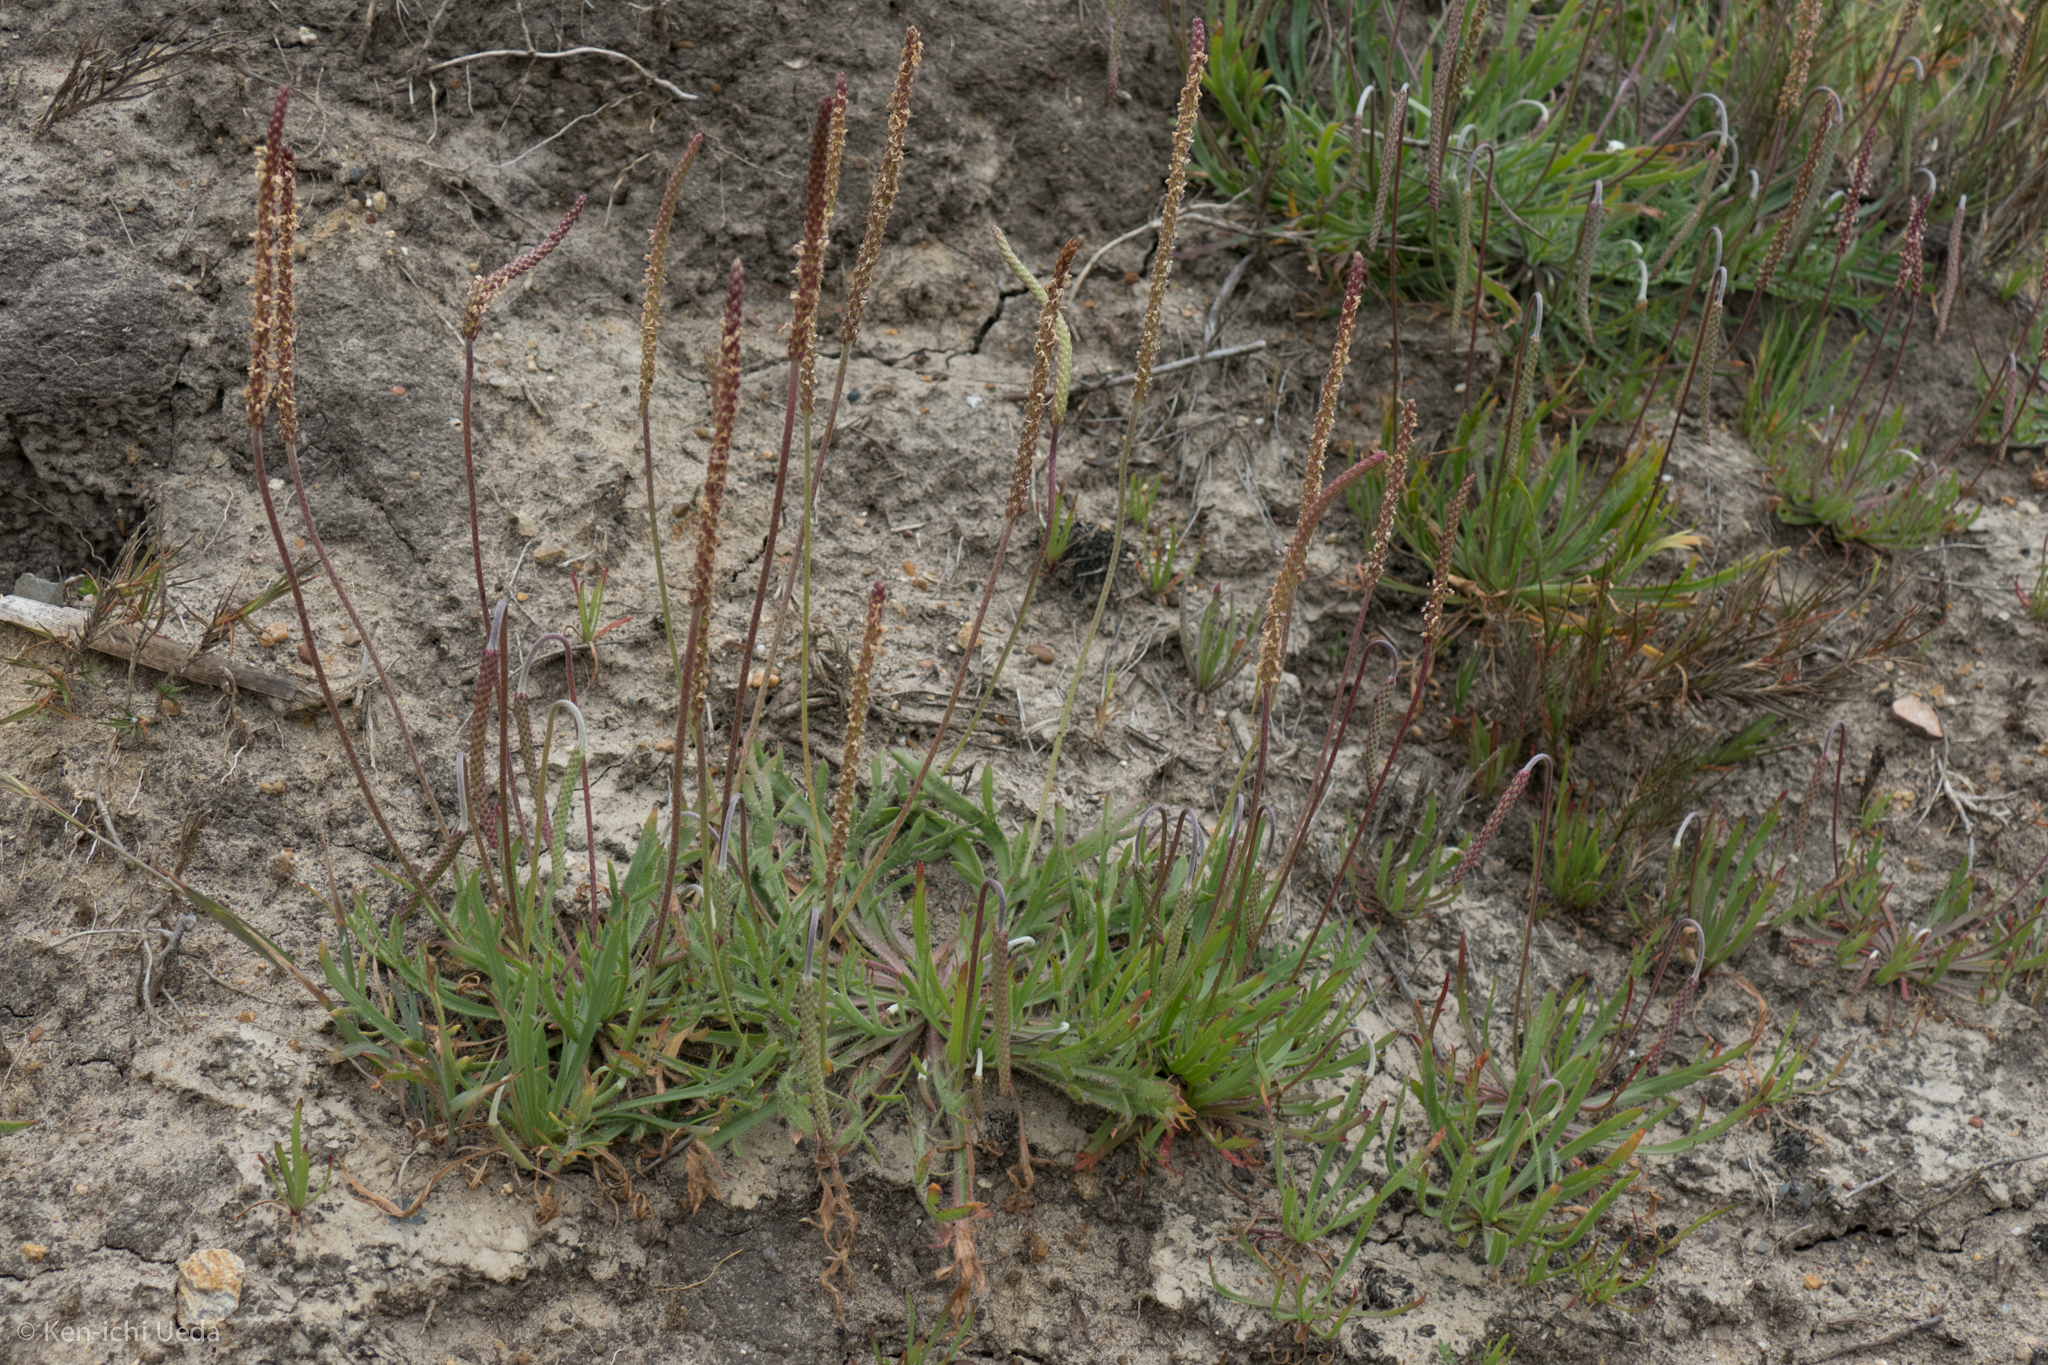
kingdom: Plantae
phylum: Tracheophyta
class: Magnoliopsida
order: Lamiales
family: Plantaginaceae
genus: Plantago
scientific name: Plantago coronopus
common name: Buck's-horn plantain
